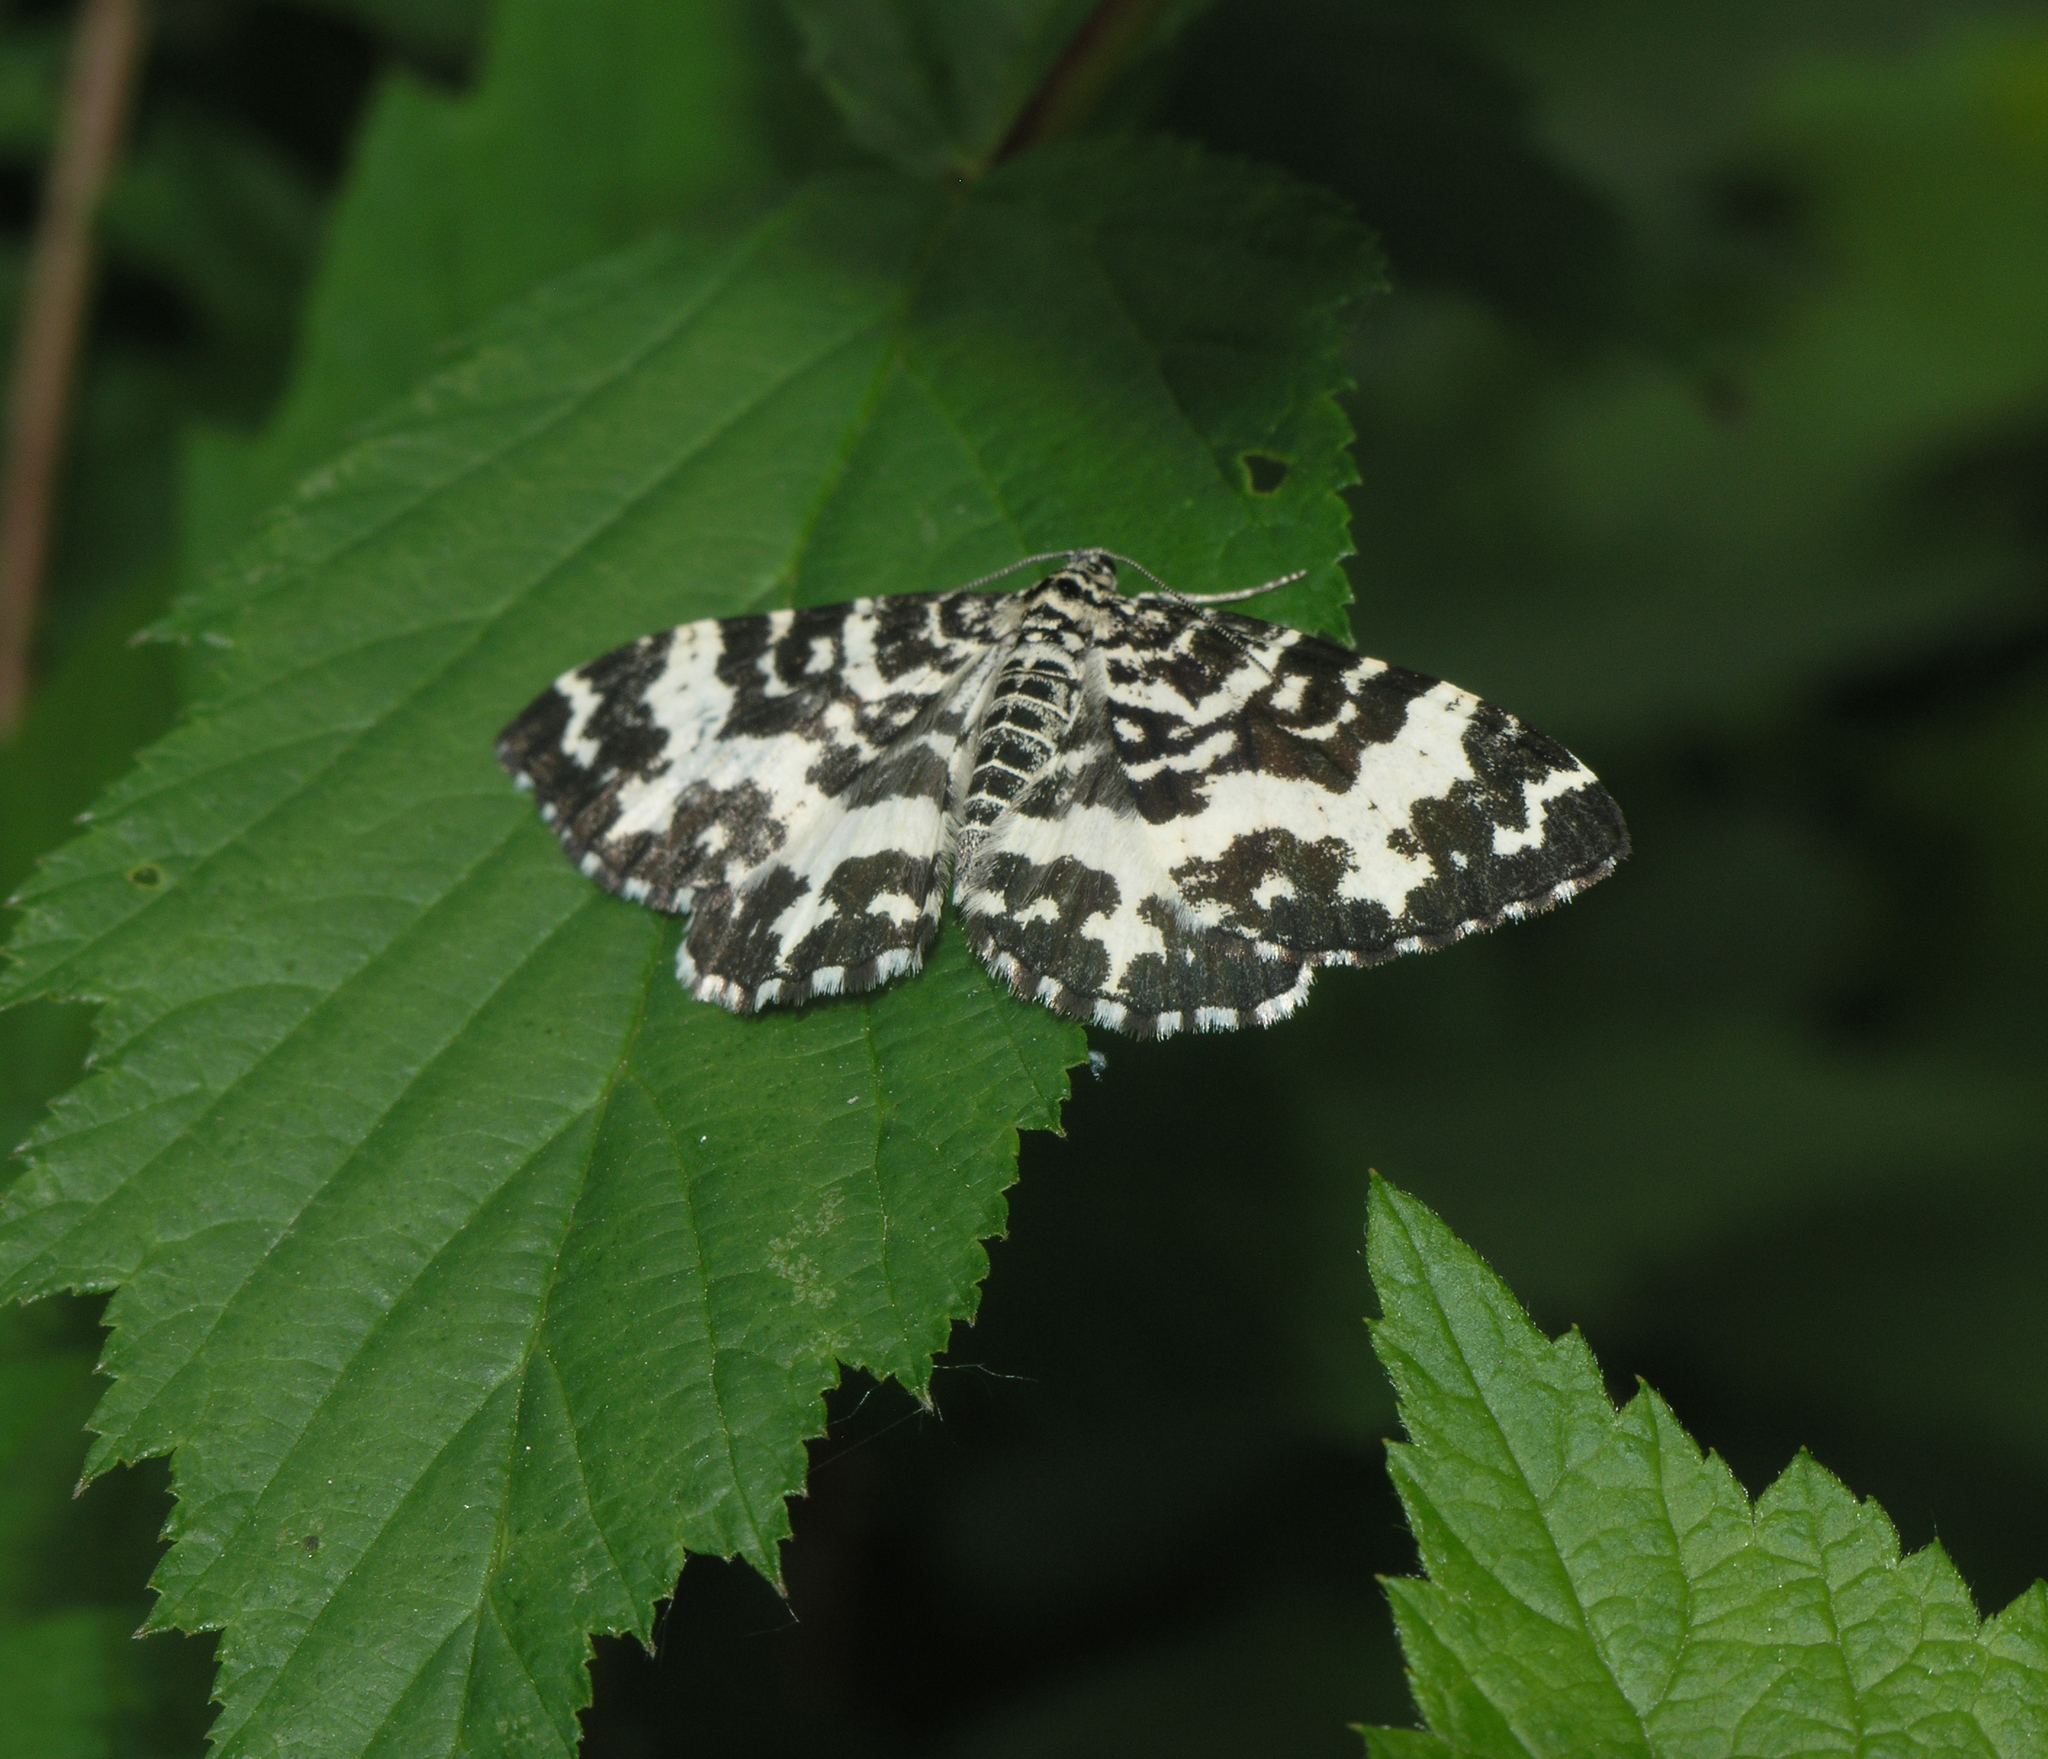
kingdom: Animalia
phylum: Arthropoda
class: Insecta
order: Lepidoptera
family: Geometridae
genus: Rheumaptera
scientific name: Rheumaptera hastata
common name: Argent & sable
